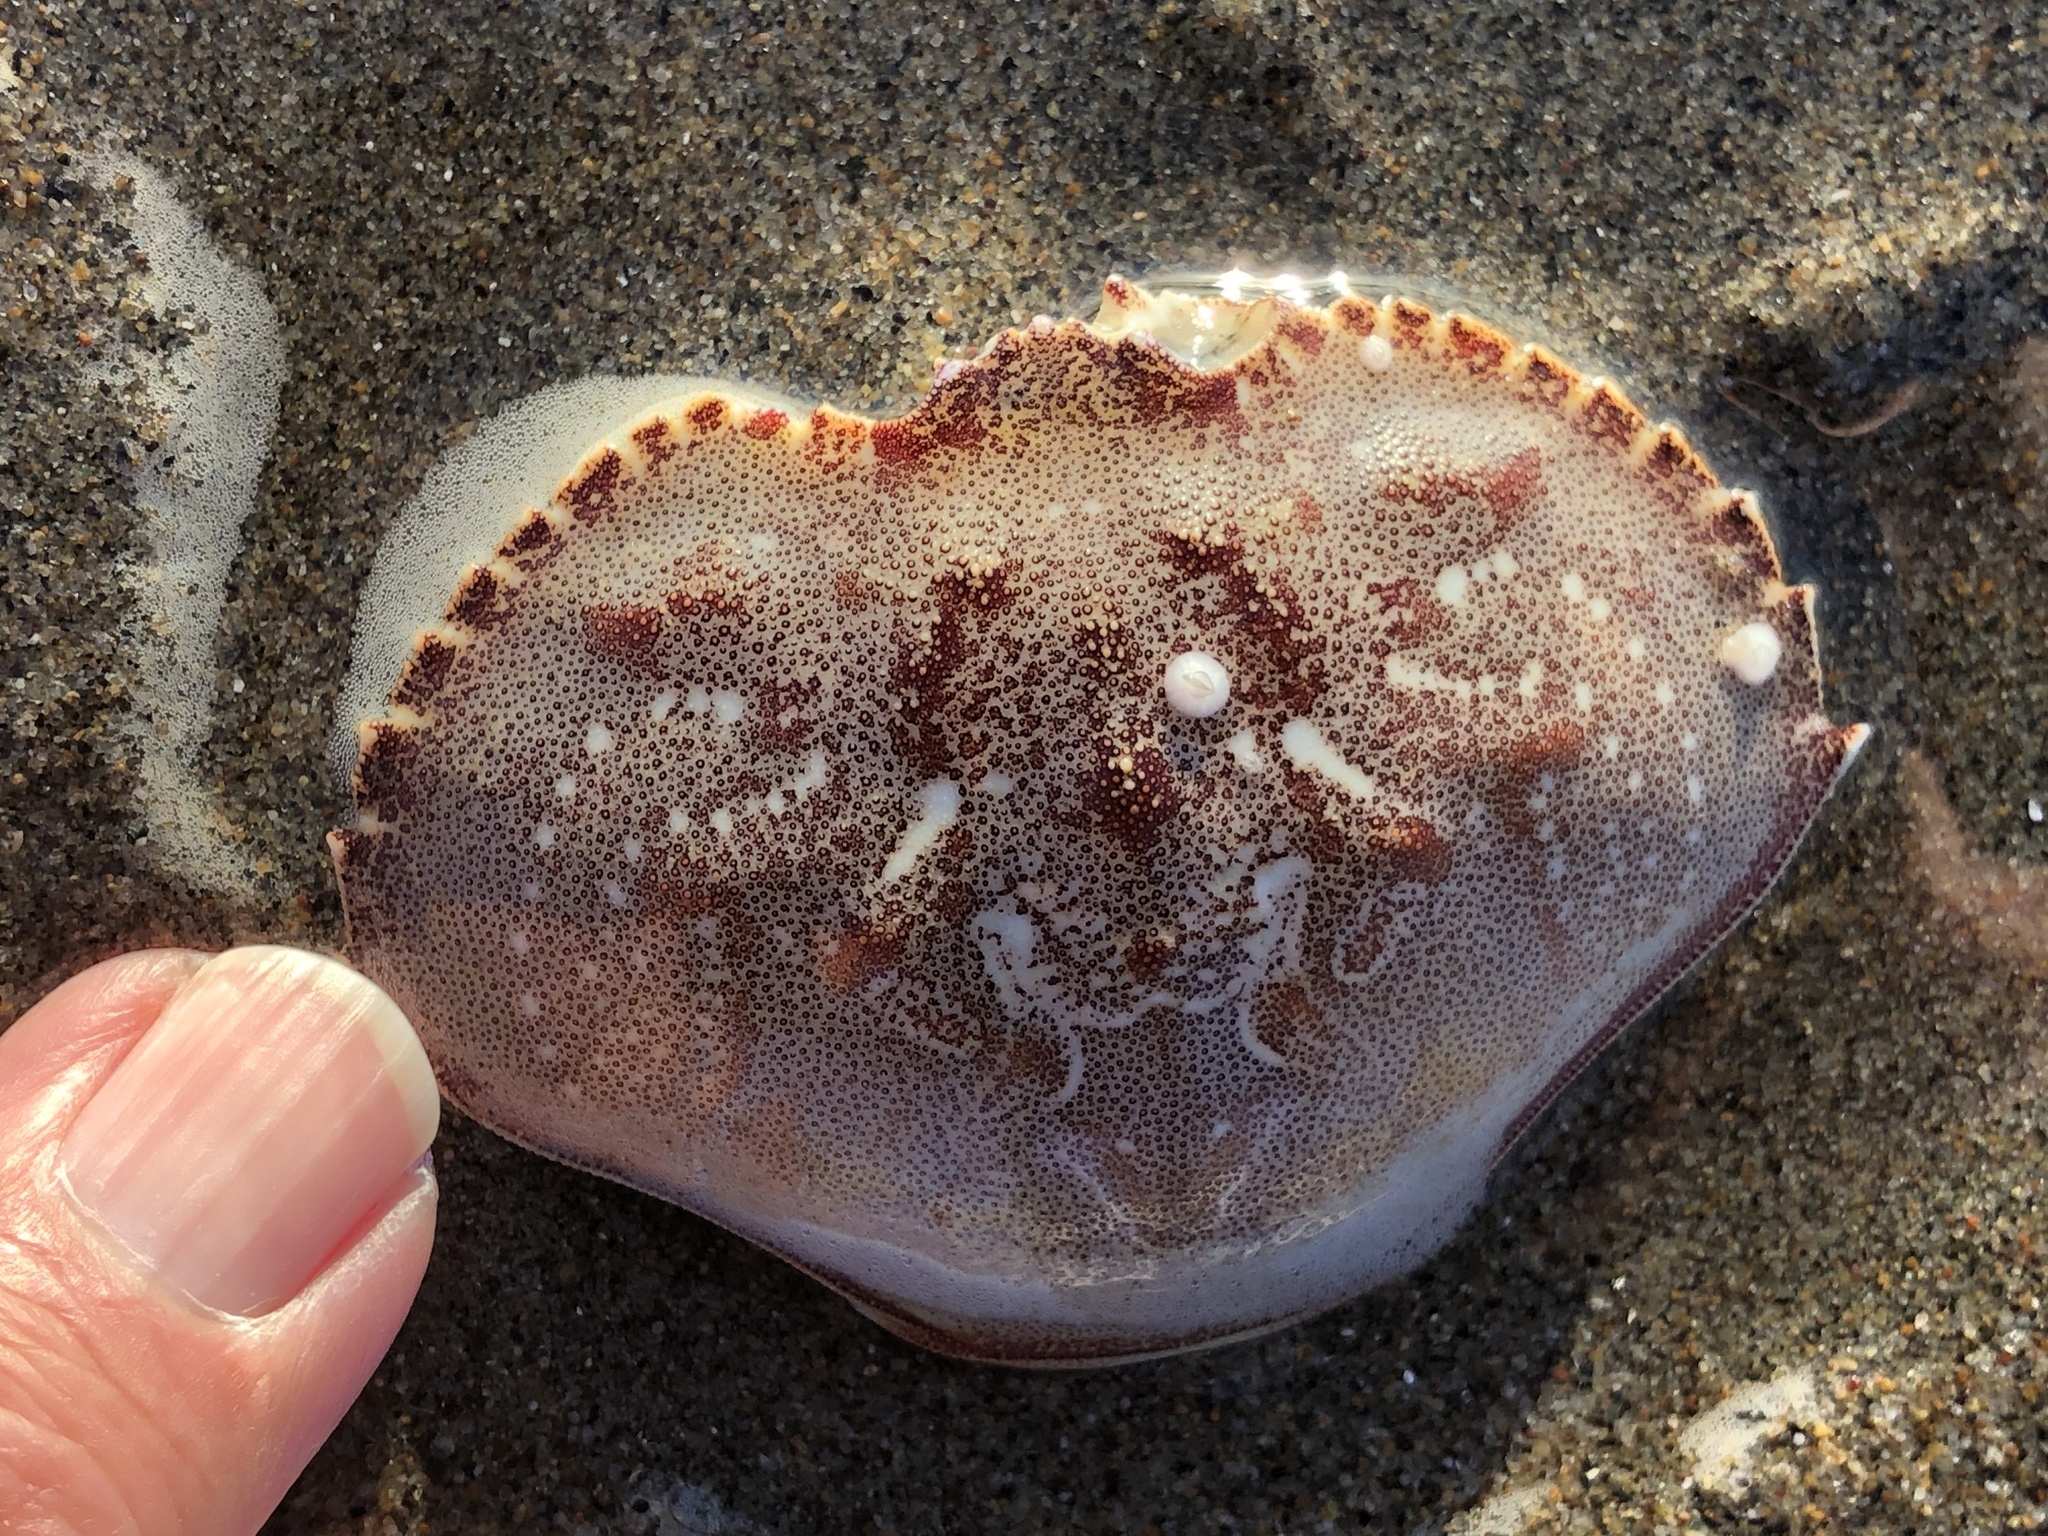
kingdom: Animalia
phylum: Arthropoda
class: Malacostraca
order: Decapoda
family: Cancridae
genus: Metacarcinus
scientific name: Metacarcinus magister
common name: Californian crab
